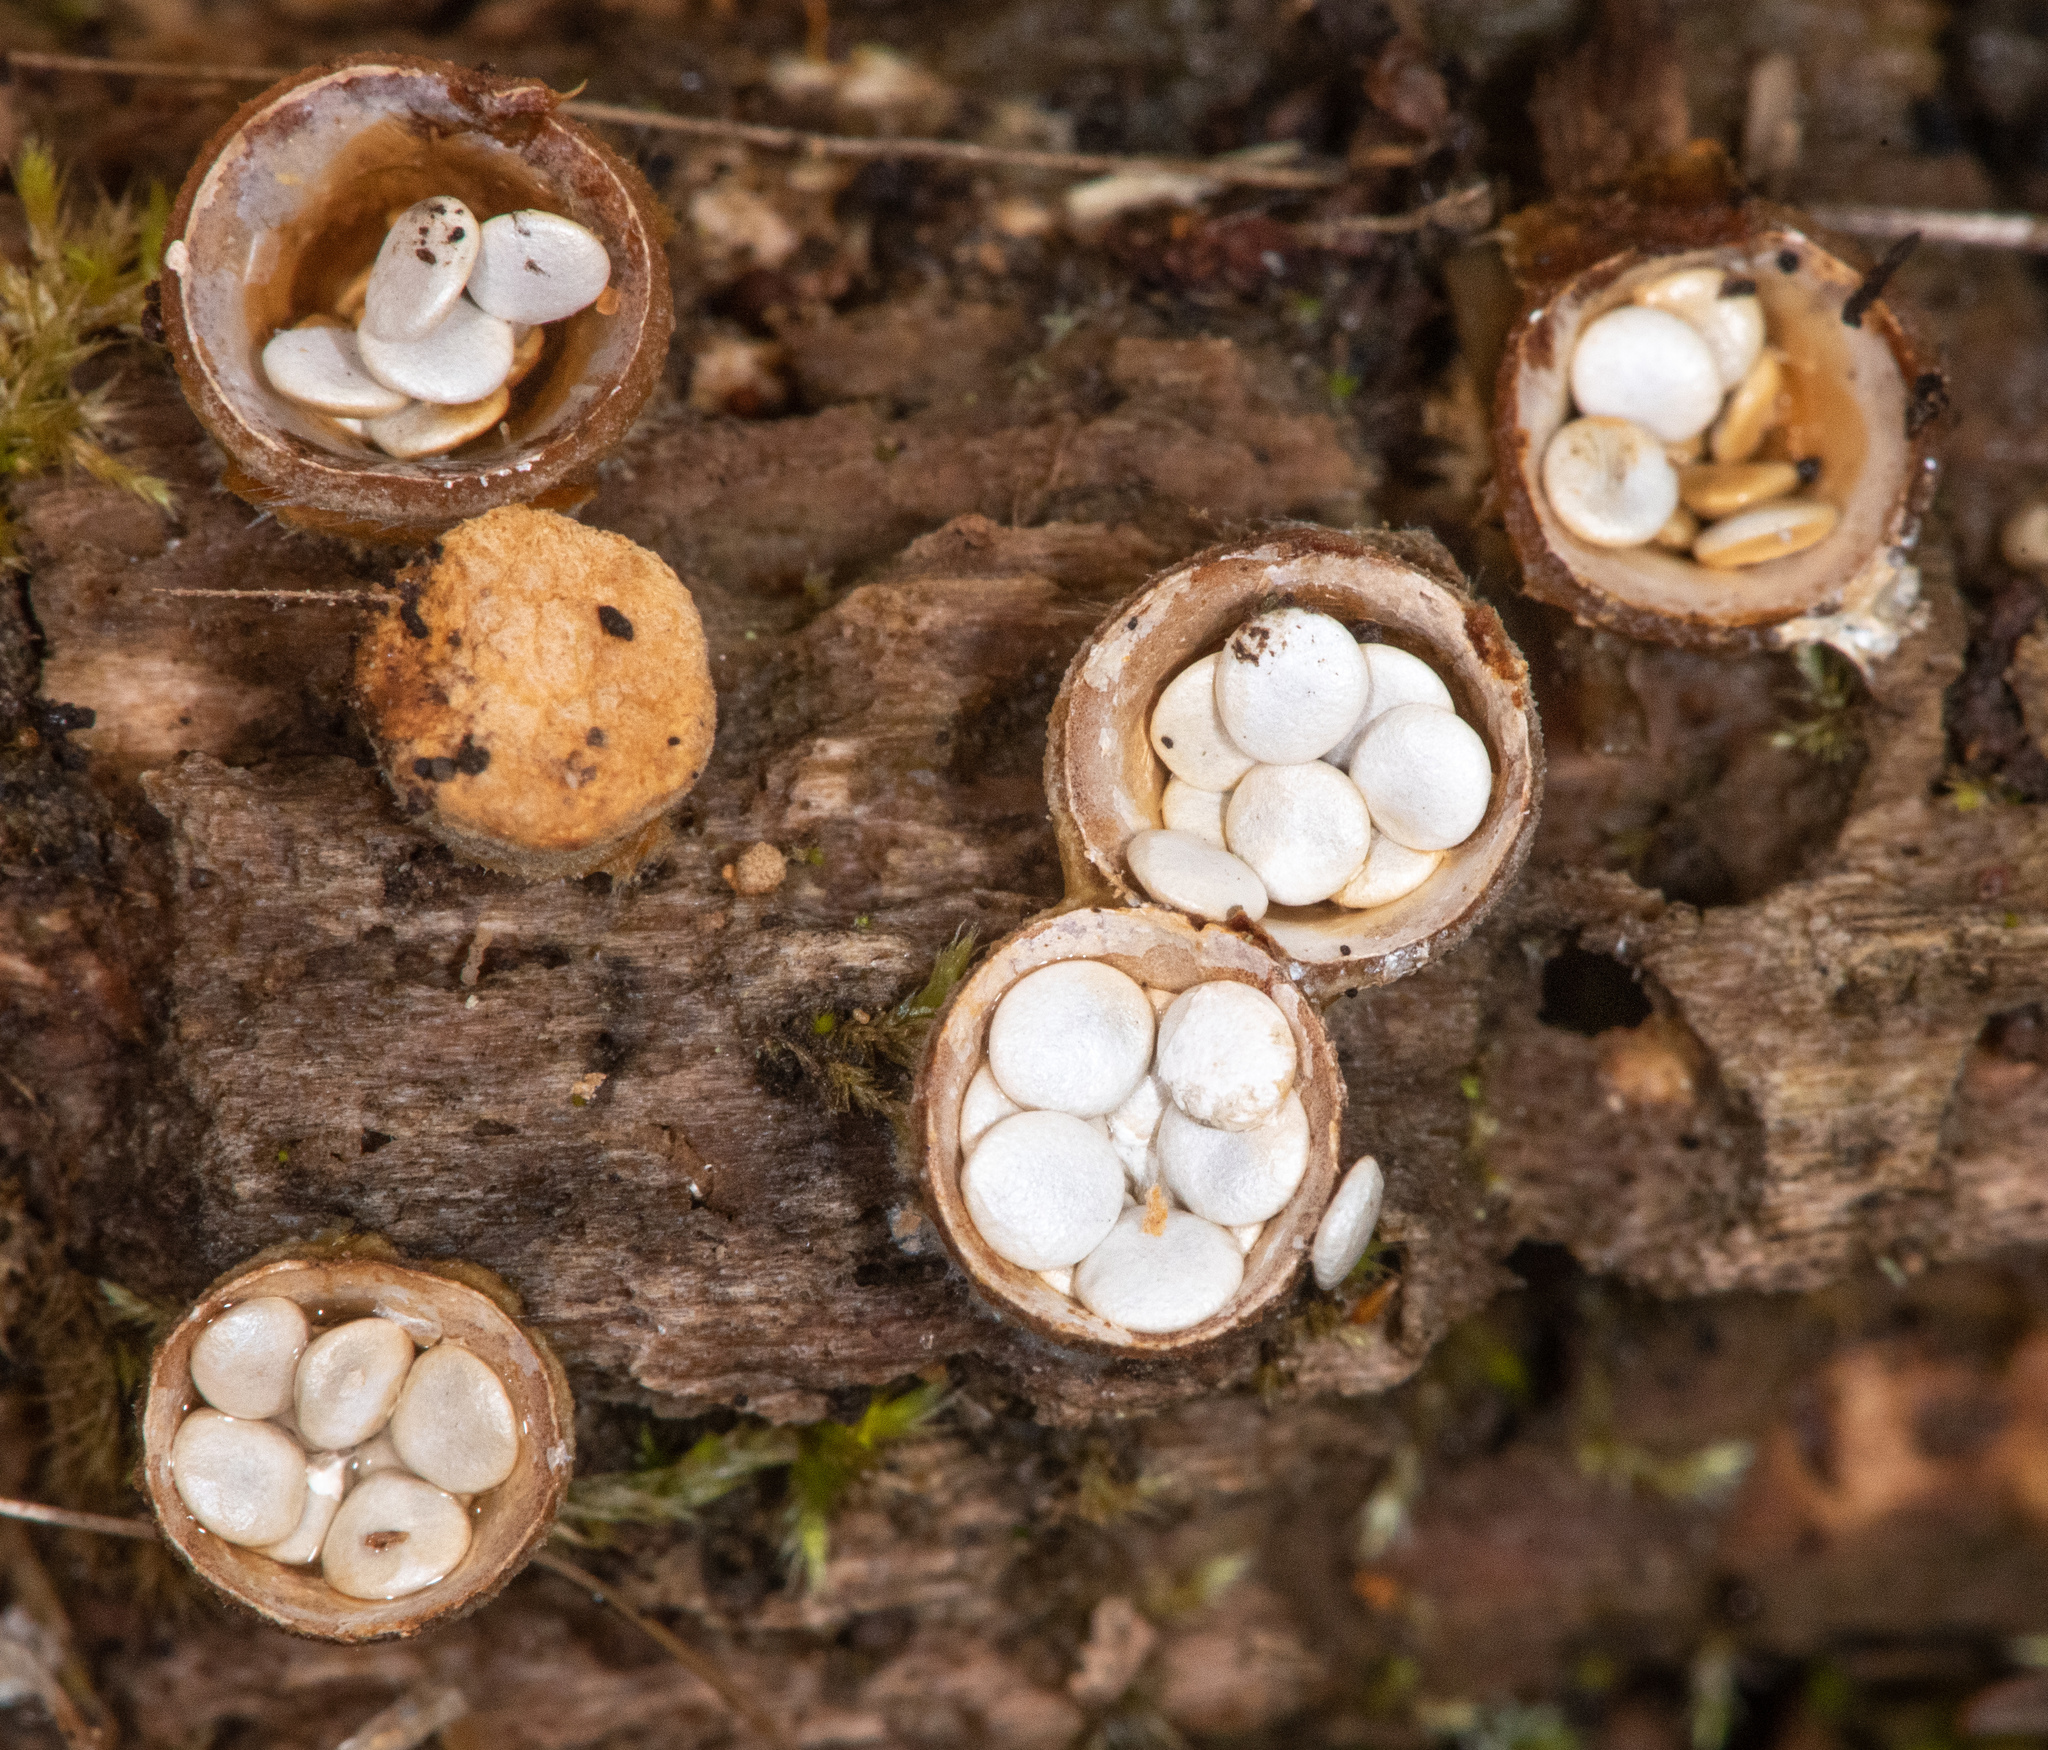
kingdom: Fungi
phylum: Basidiomycota
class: Agaricomycetes
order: Agaricales
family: Nidulariaceae
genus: Crucibulum
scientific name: Crucibulum laeve
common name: Common bird's nest
